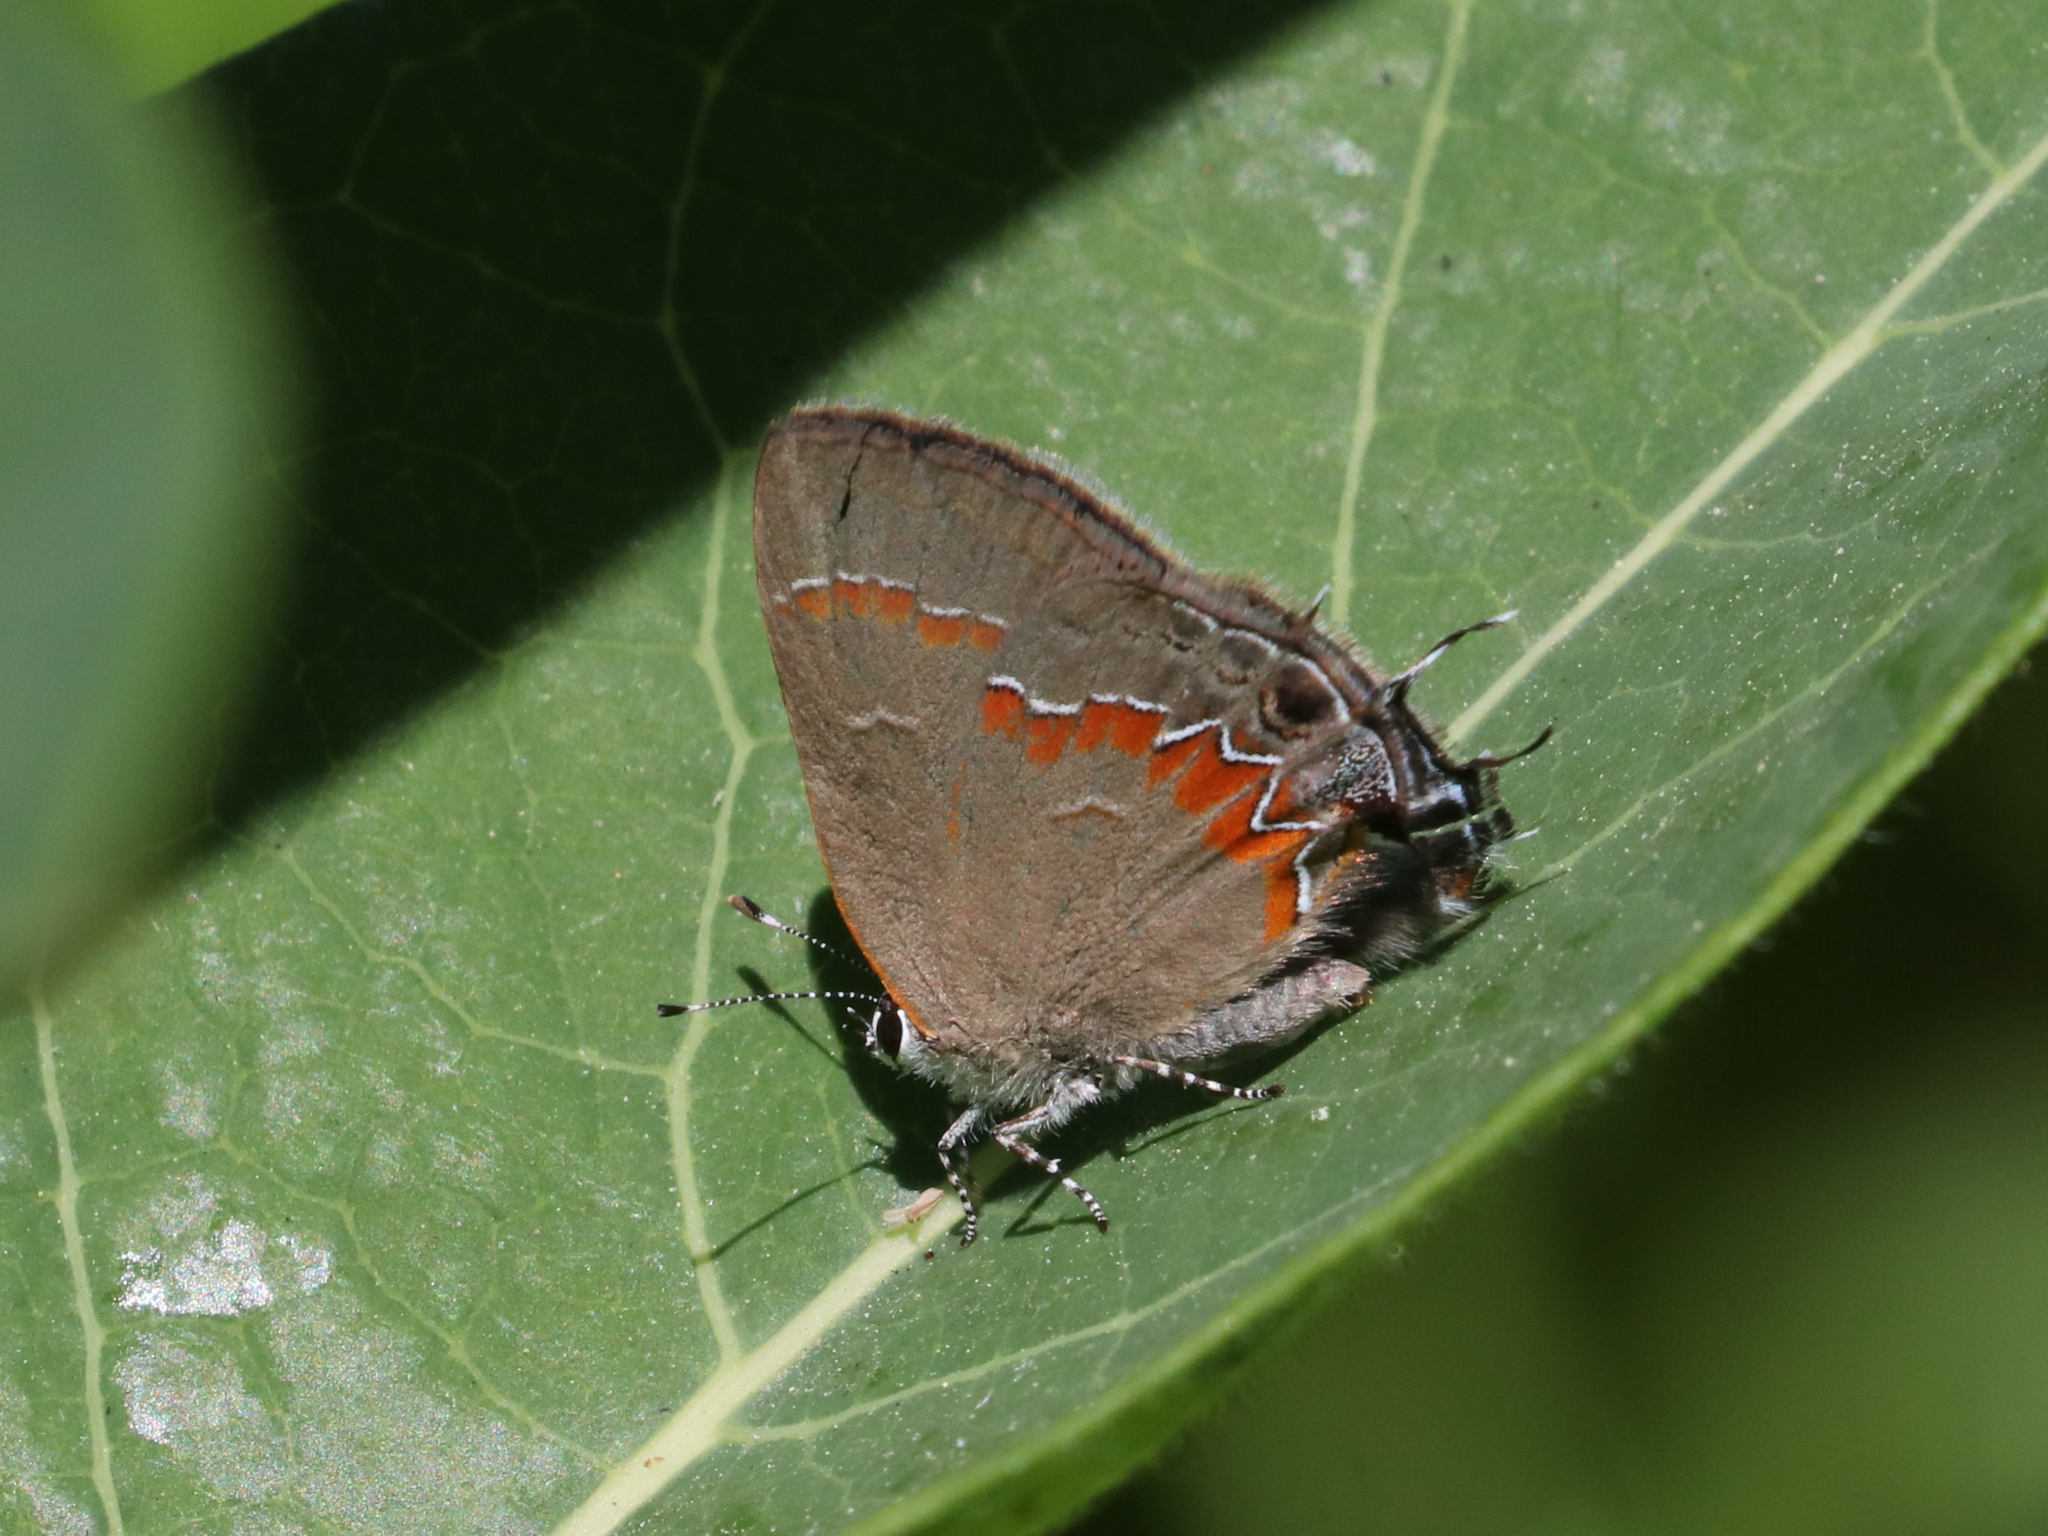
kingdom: Animalia
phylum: Arthropoda
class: Insecta
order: Lepidoptera
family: Lycaenidae
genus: Calycopis
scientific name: Calycopis cecrops
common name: Red-banded hairstreak
